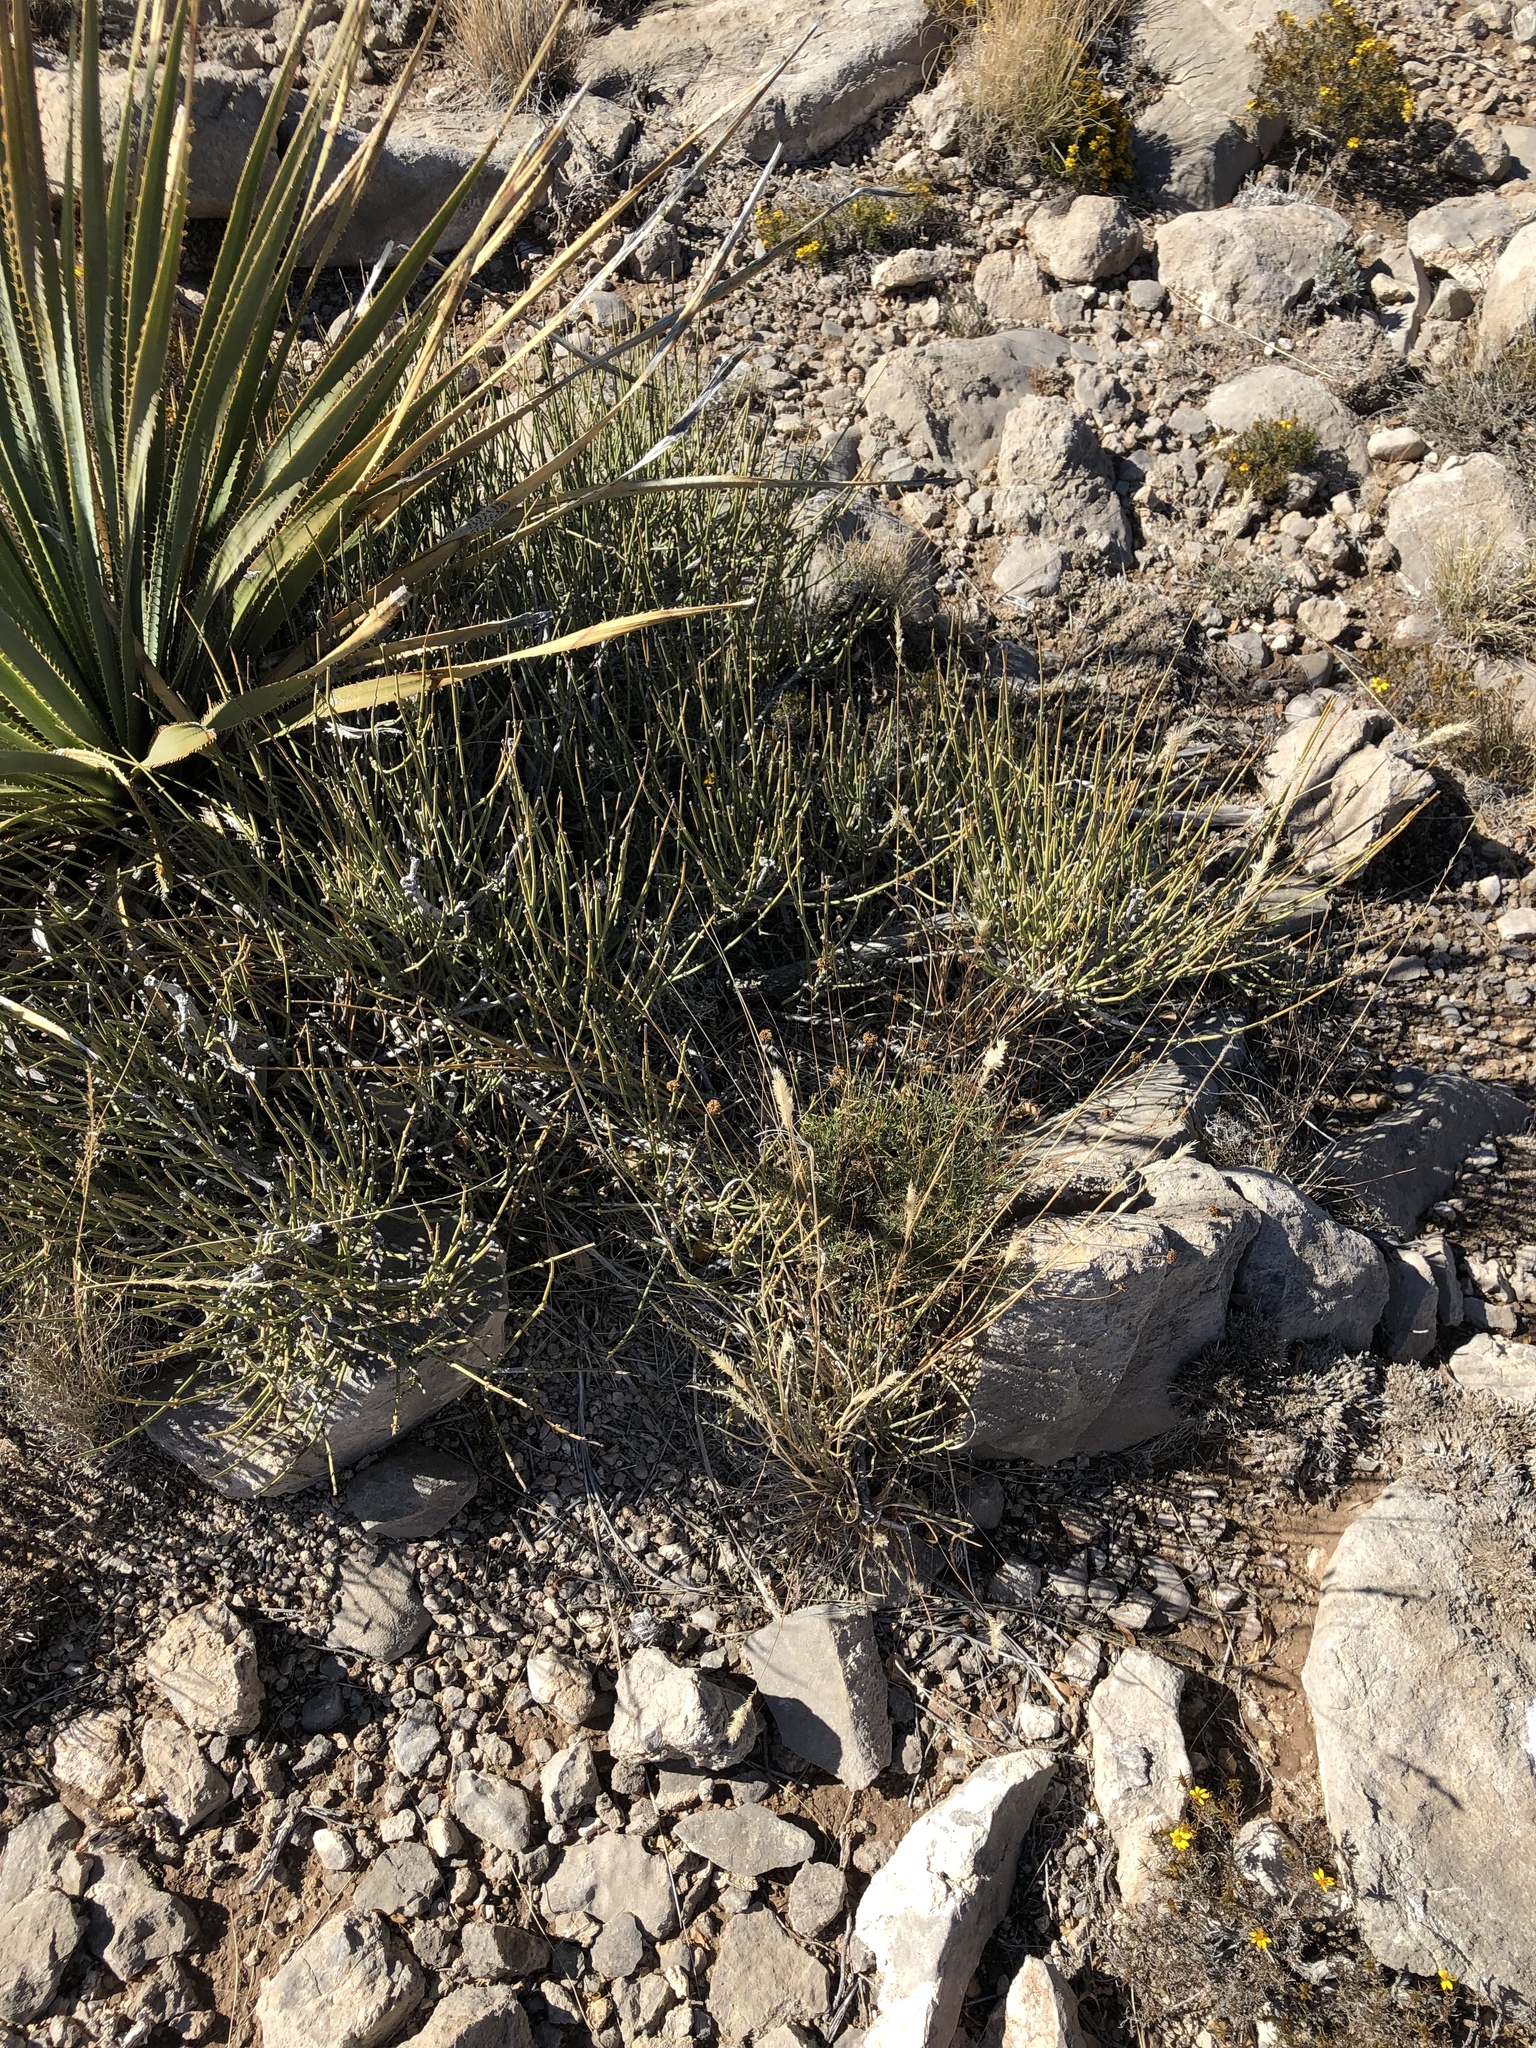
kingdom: Plantae
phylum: Tracheophyta
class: Gnetopsida
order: Ephedrales
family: Ephedraceae
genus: Ephedra
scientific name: Ephedra aspera
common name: Boundary ephedra
